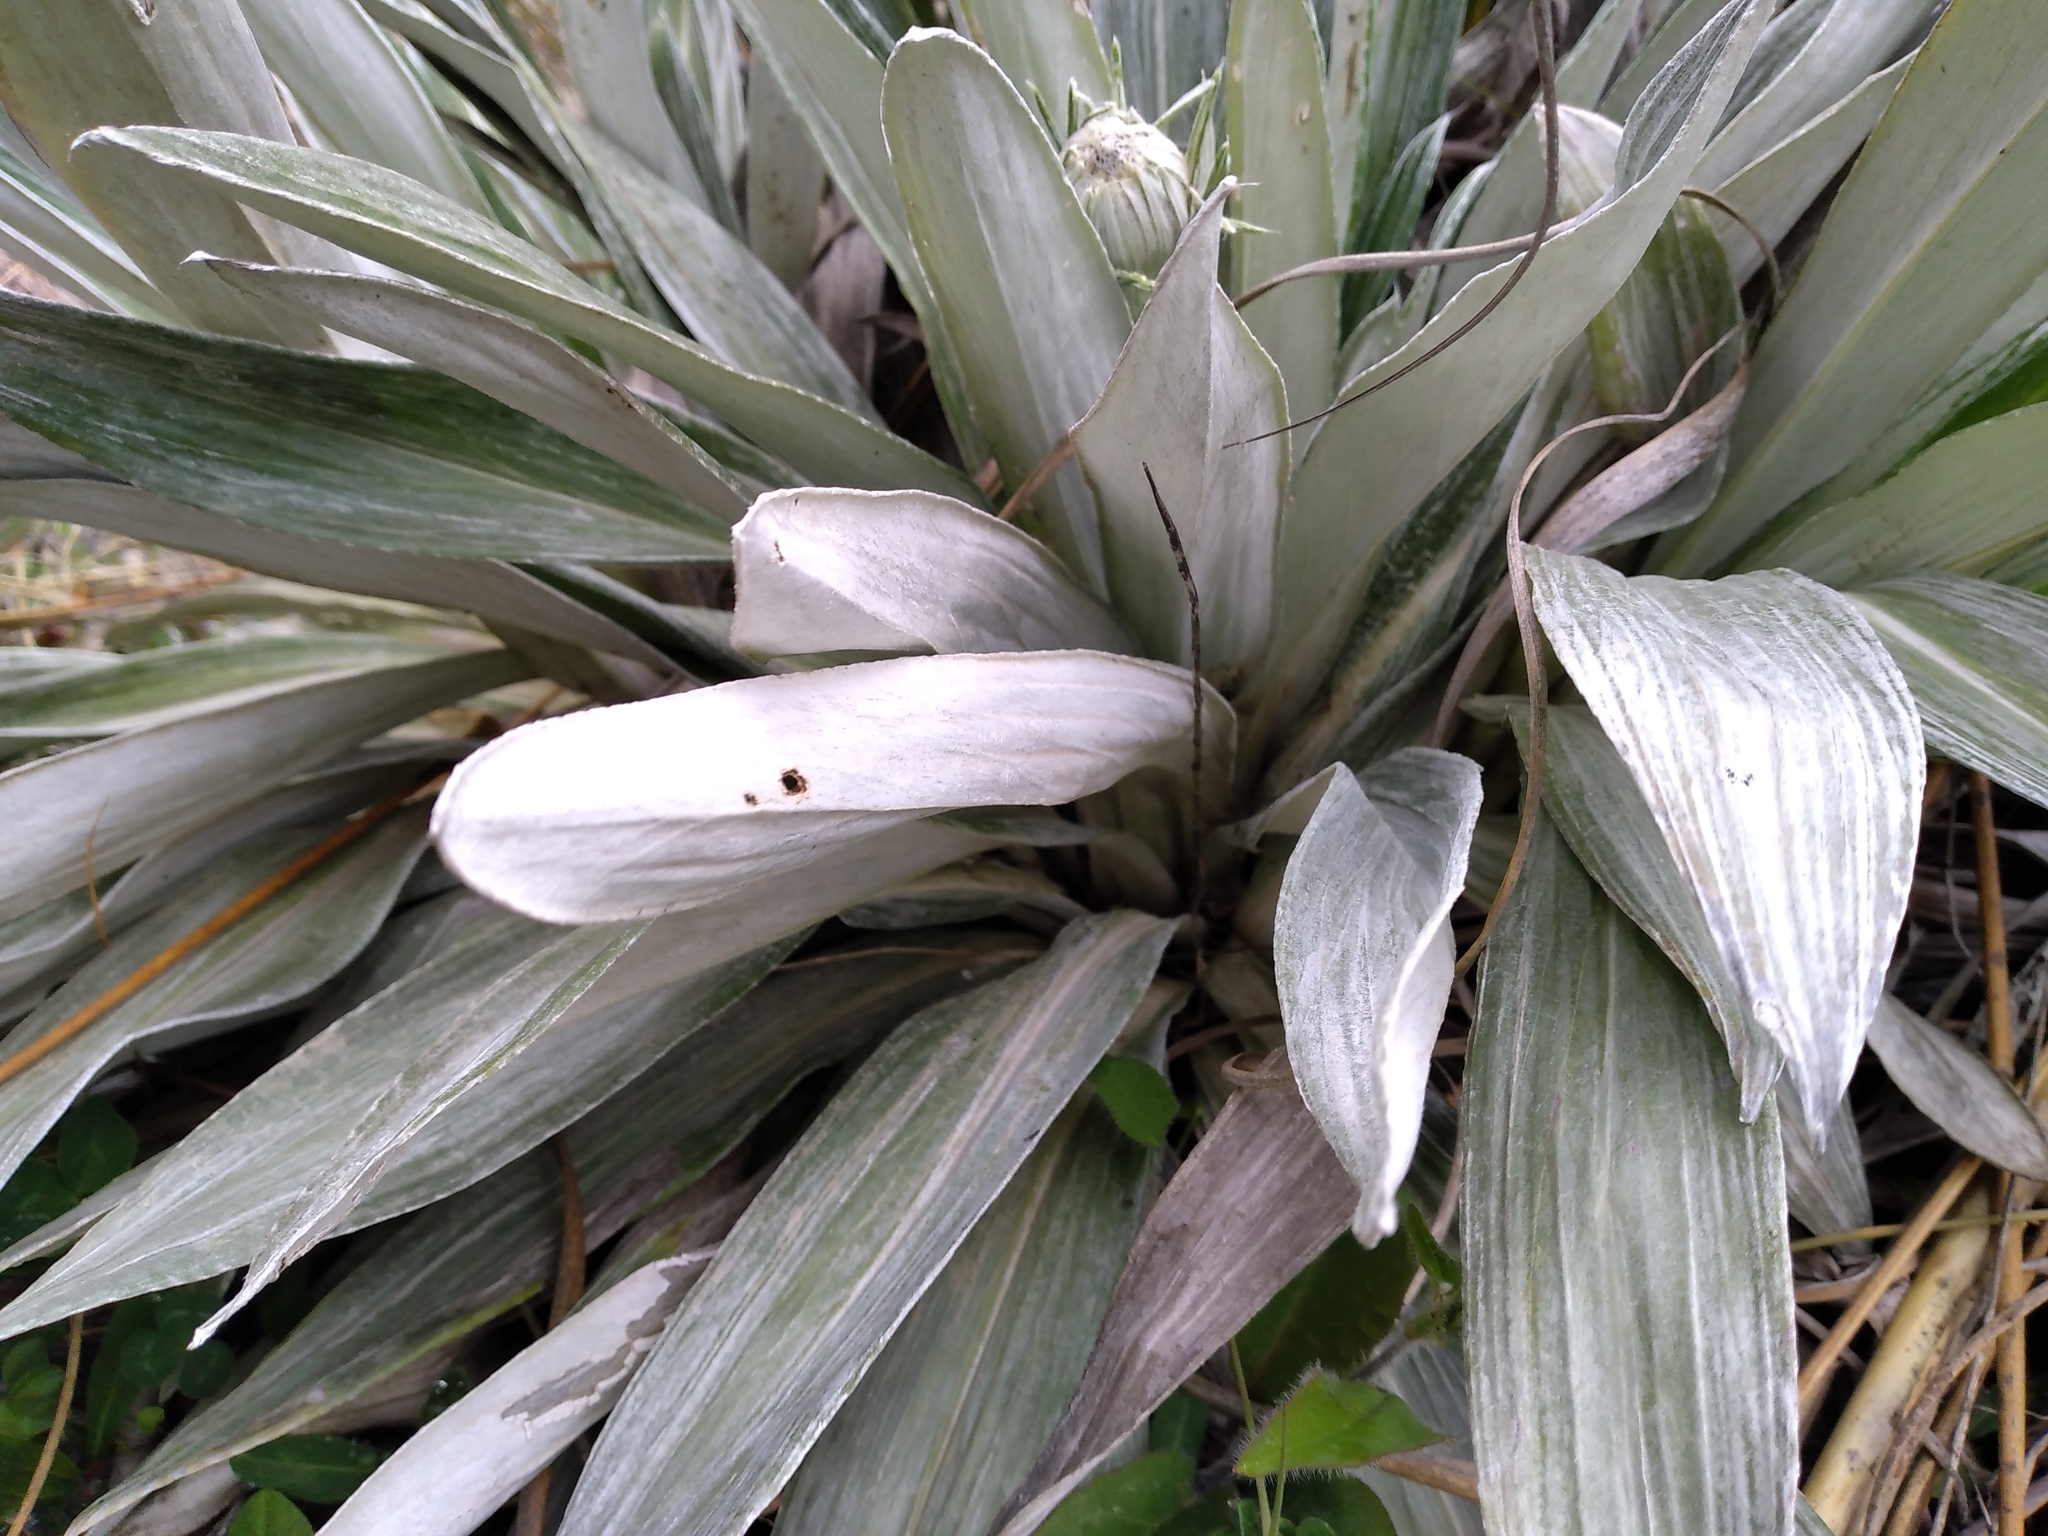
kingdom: Plantae
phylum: Tracheophyta
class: Magnoliopsida
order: Asterales
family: Asteraceae
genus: Celmisia
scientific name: Celmisia monroi
